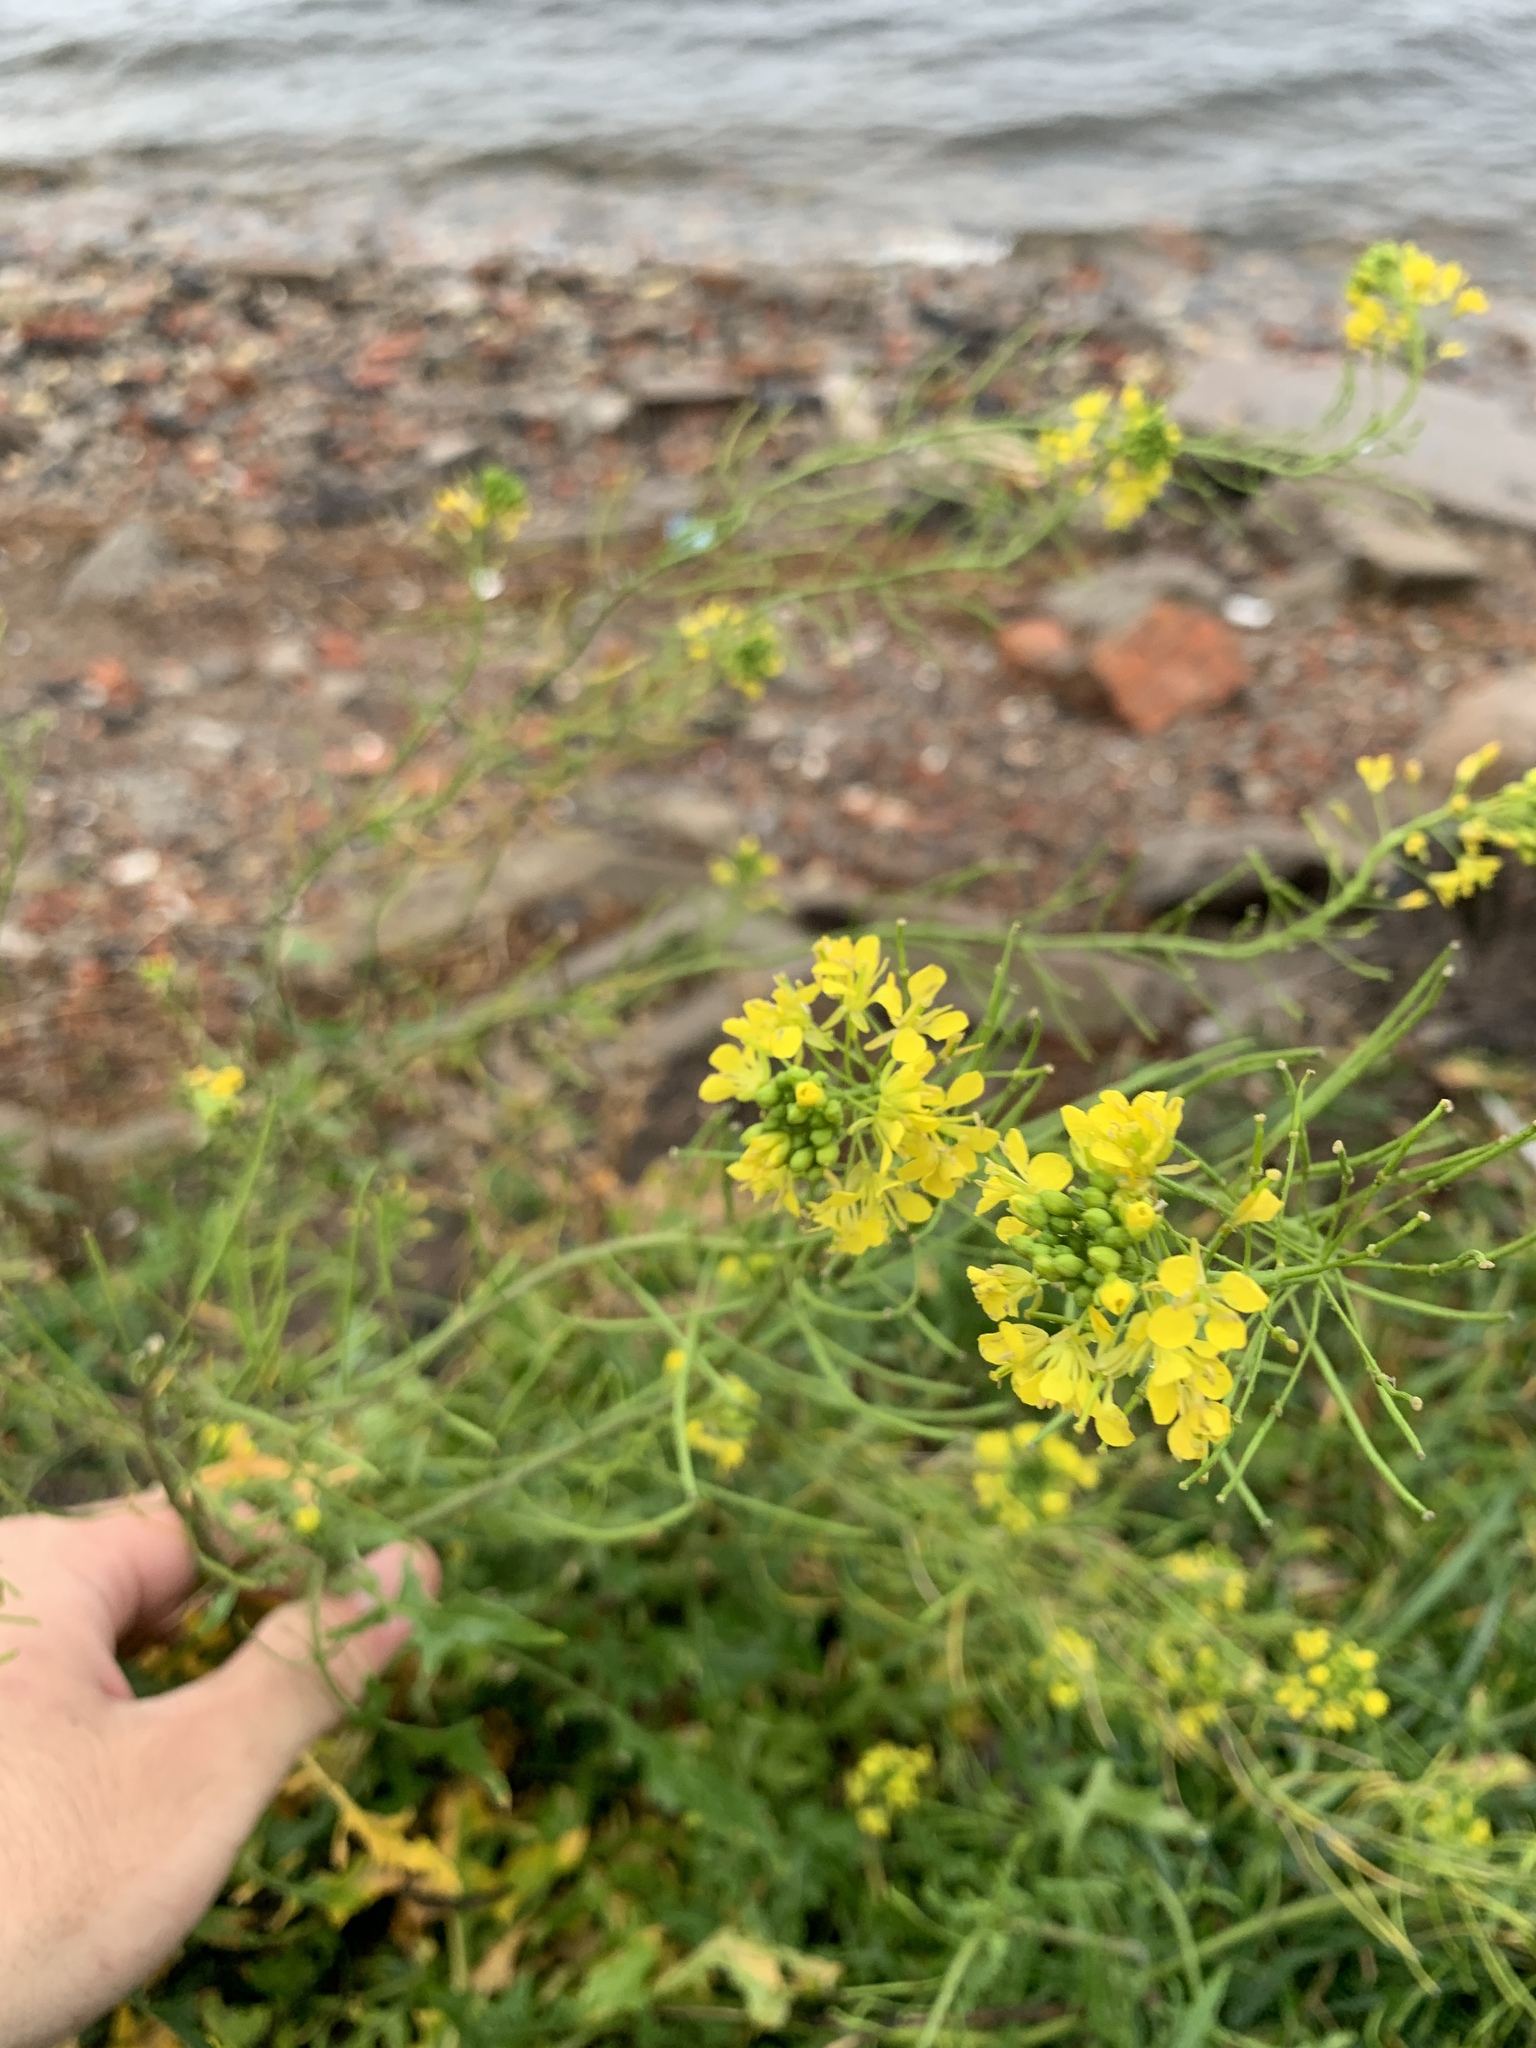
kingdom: Plantae
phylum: Tracheophyta
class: Magnoliopsida
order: Brassicales
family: Brassicaceae
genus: Sisymbrium
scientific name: Sisymbrium loeselii
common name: False london-rocket
